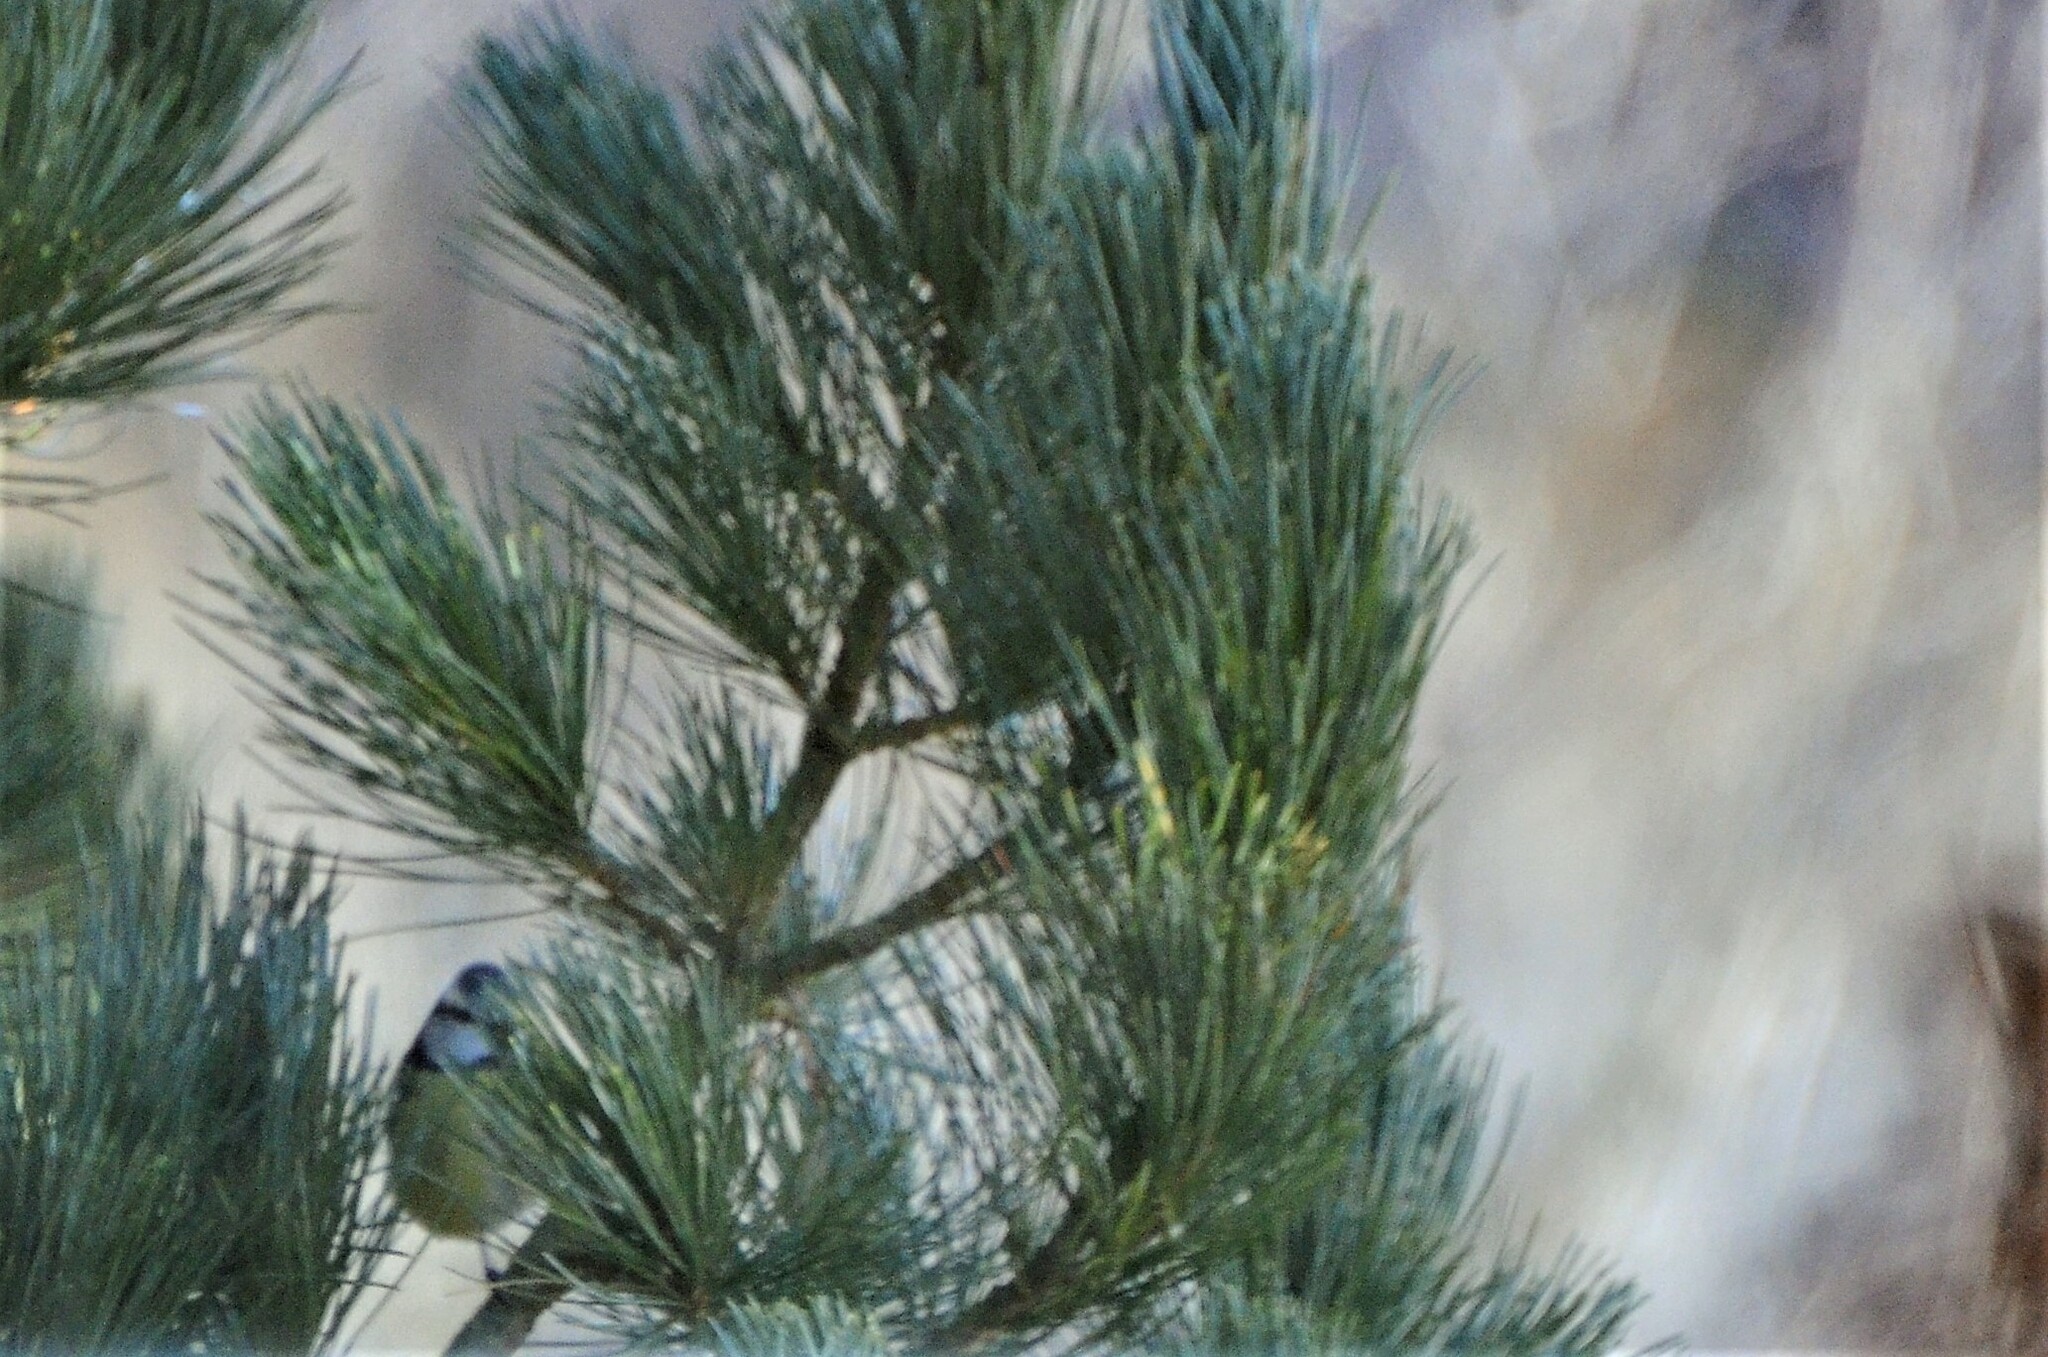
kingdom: Animalia
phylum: Chordata
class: Aves
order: Passeriformes
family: Paridae
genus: Cyanistes
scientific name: Cyanistes caeruleus
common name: Eurasian blue tit
